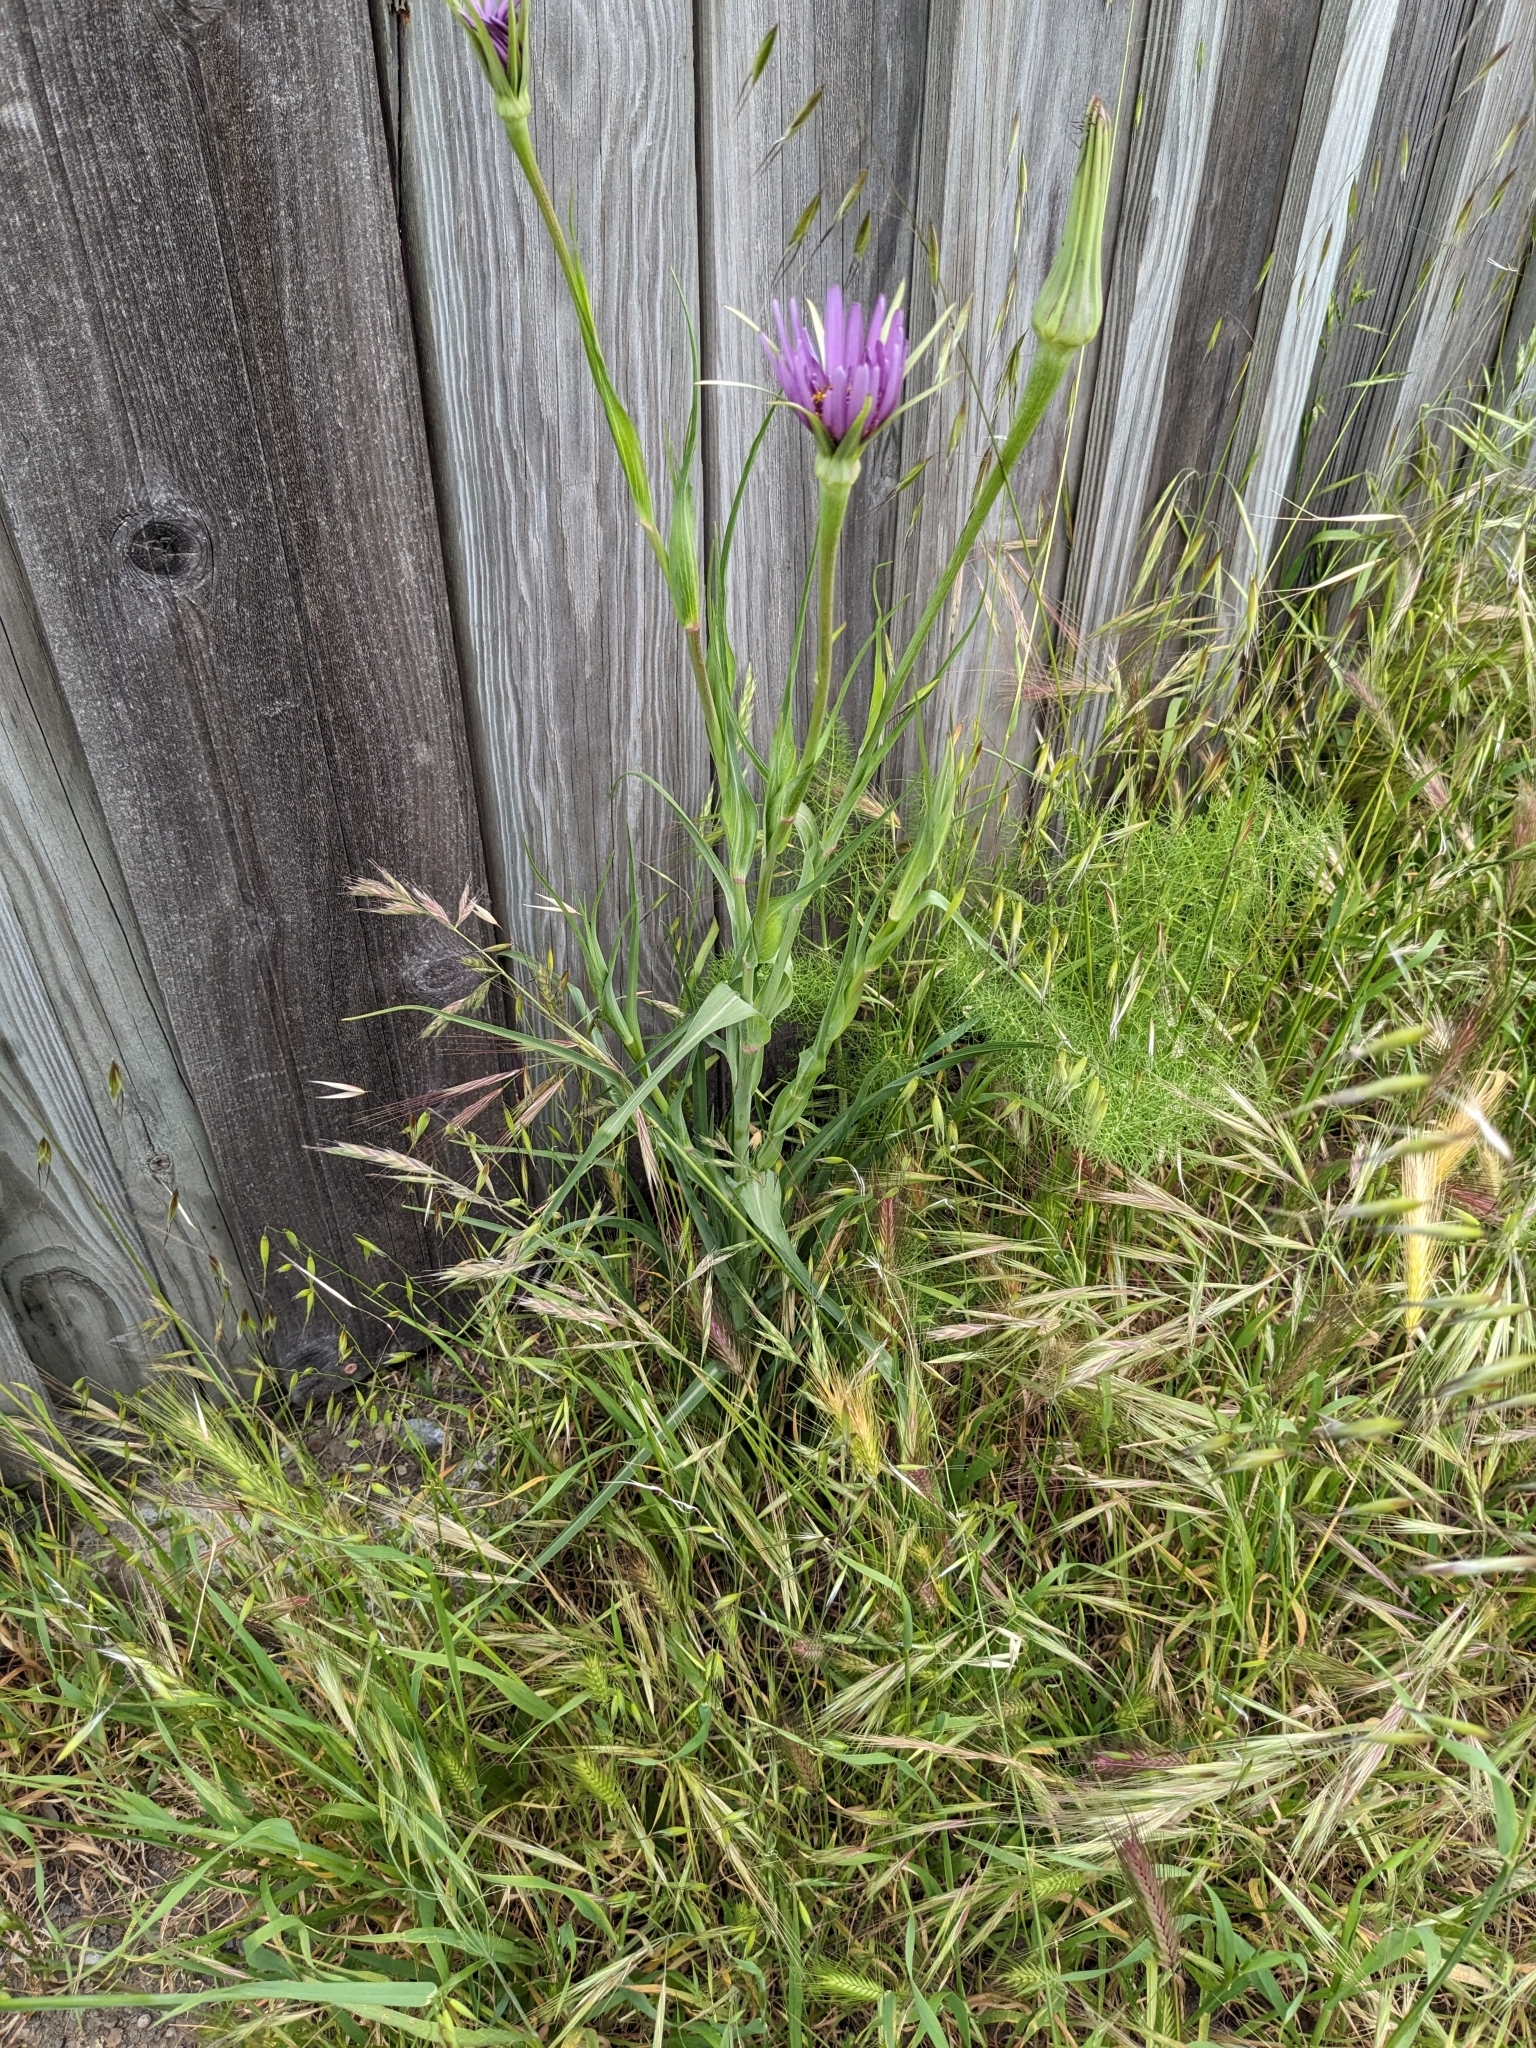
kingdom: Plantae
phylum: Tracheophyta
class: Magnoliopsida
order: Asterales
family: Asteraceae
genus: Tragopogon
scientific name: Tragopogon porrifolius
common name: Salsify
